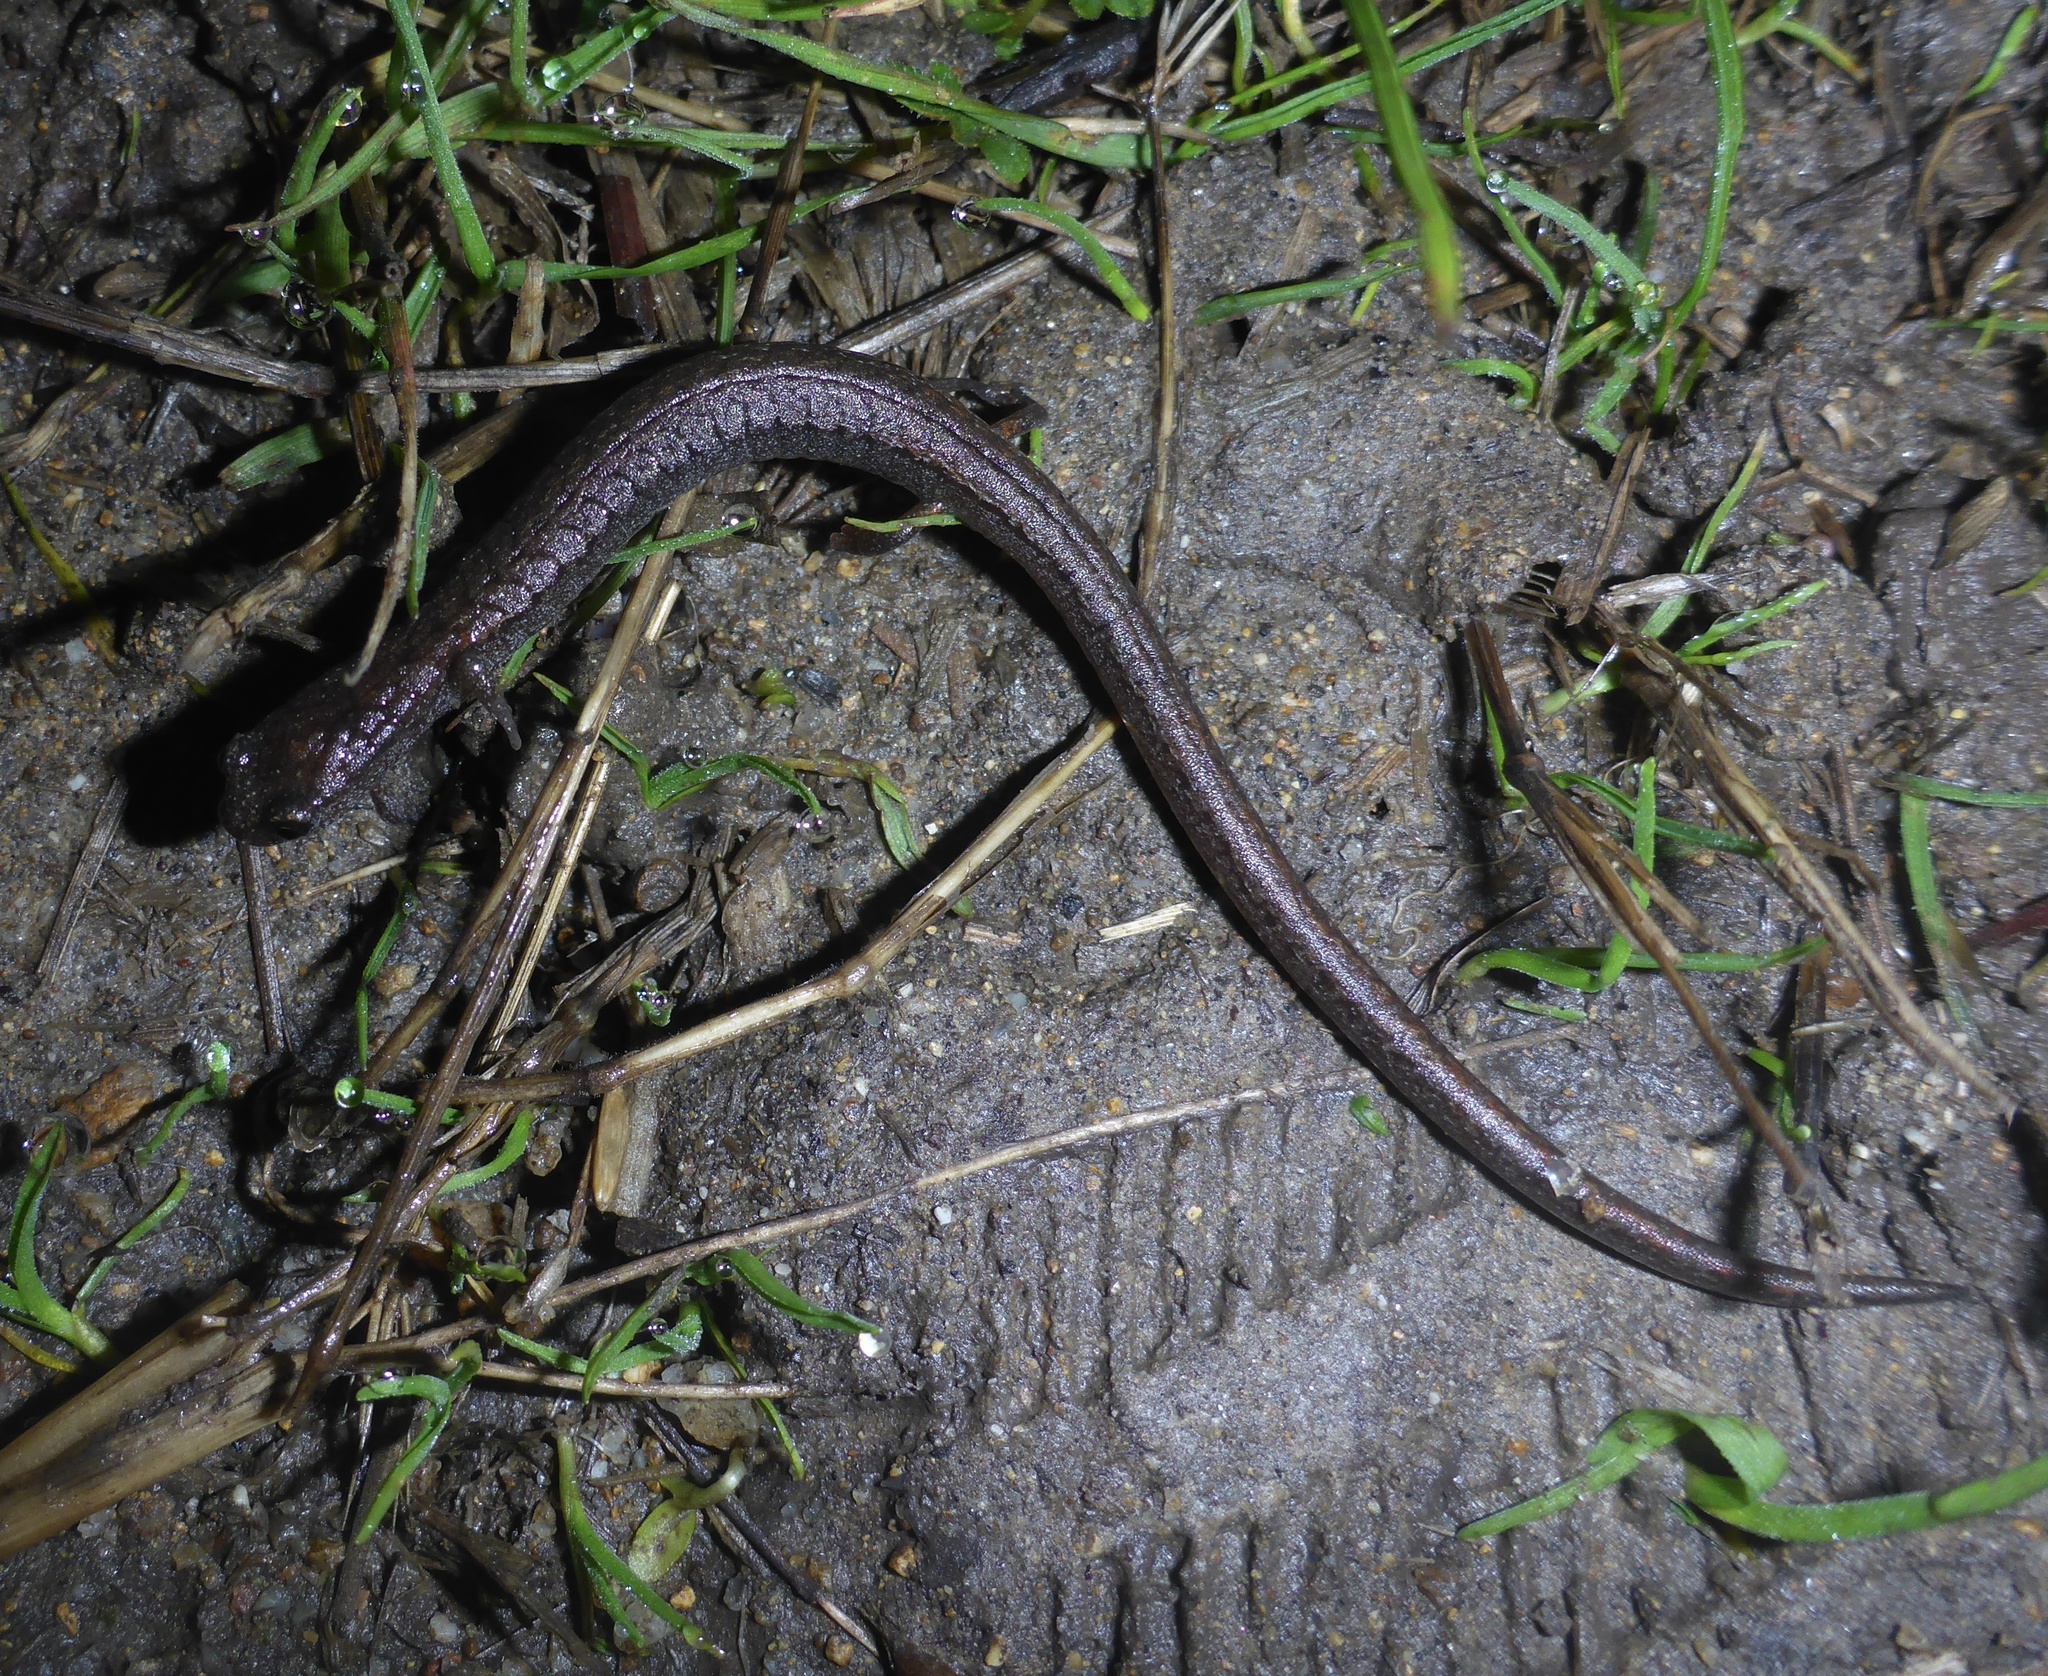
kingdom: Animalia
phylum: Chordata
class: Amphibia
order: Caudata
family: Plethodontidae
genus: Batrachoseps
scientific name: Batrachoseps attenuatus
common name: California slender salamander
